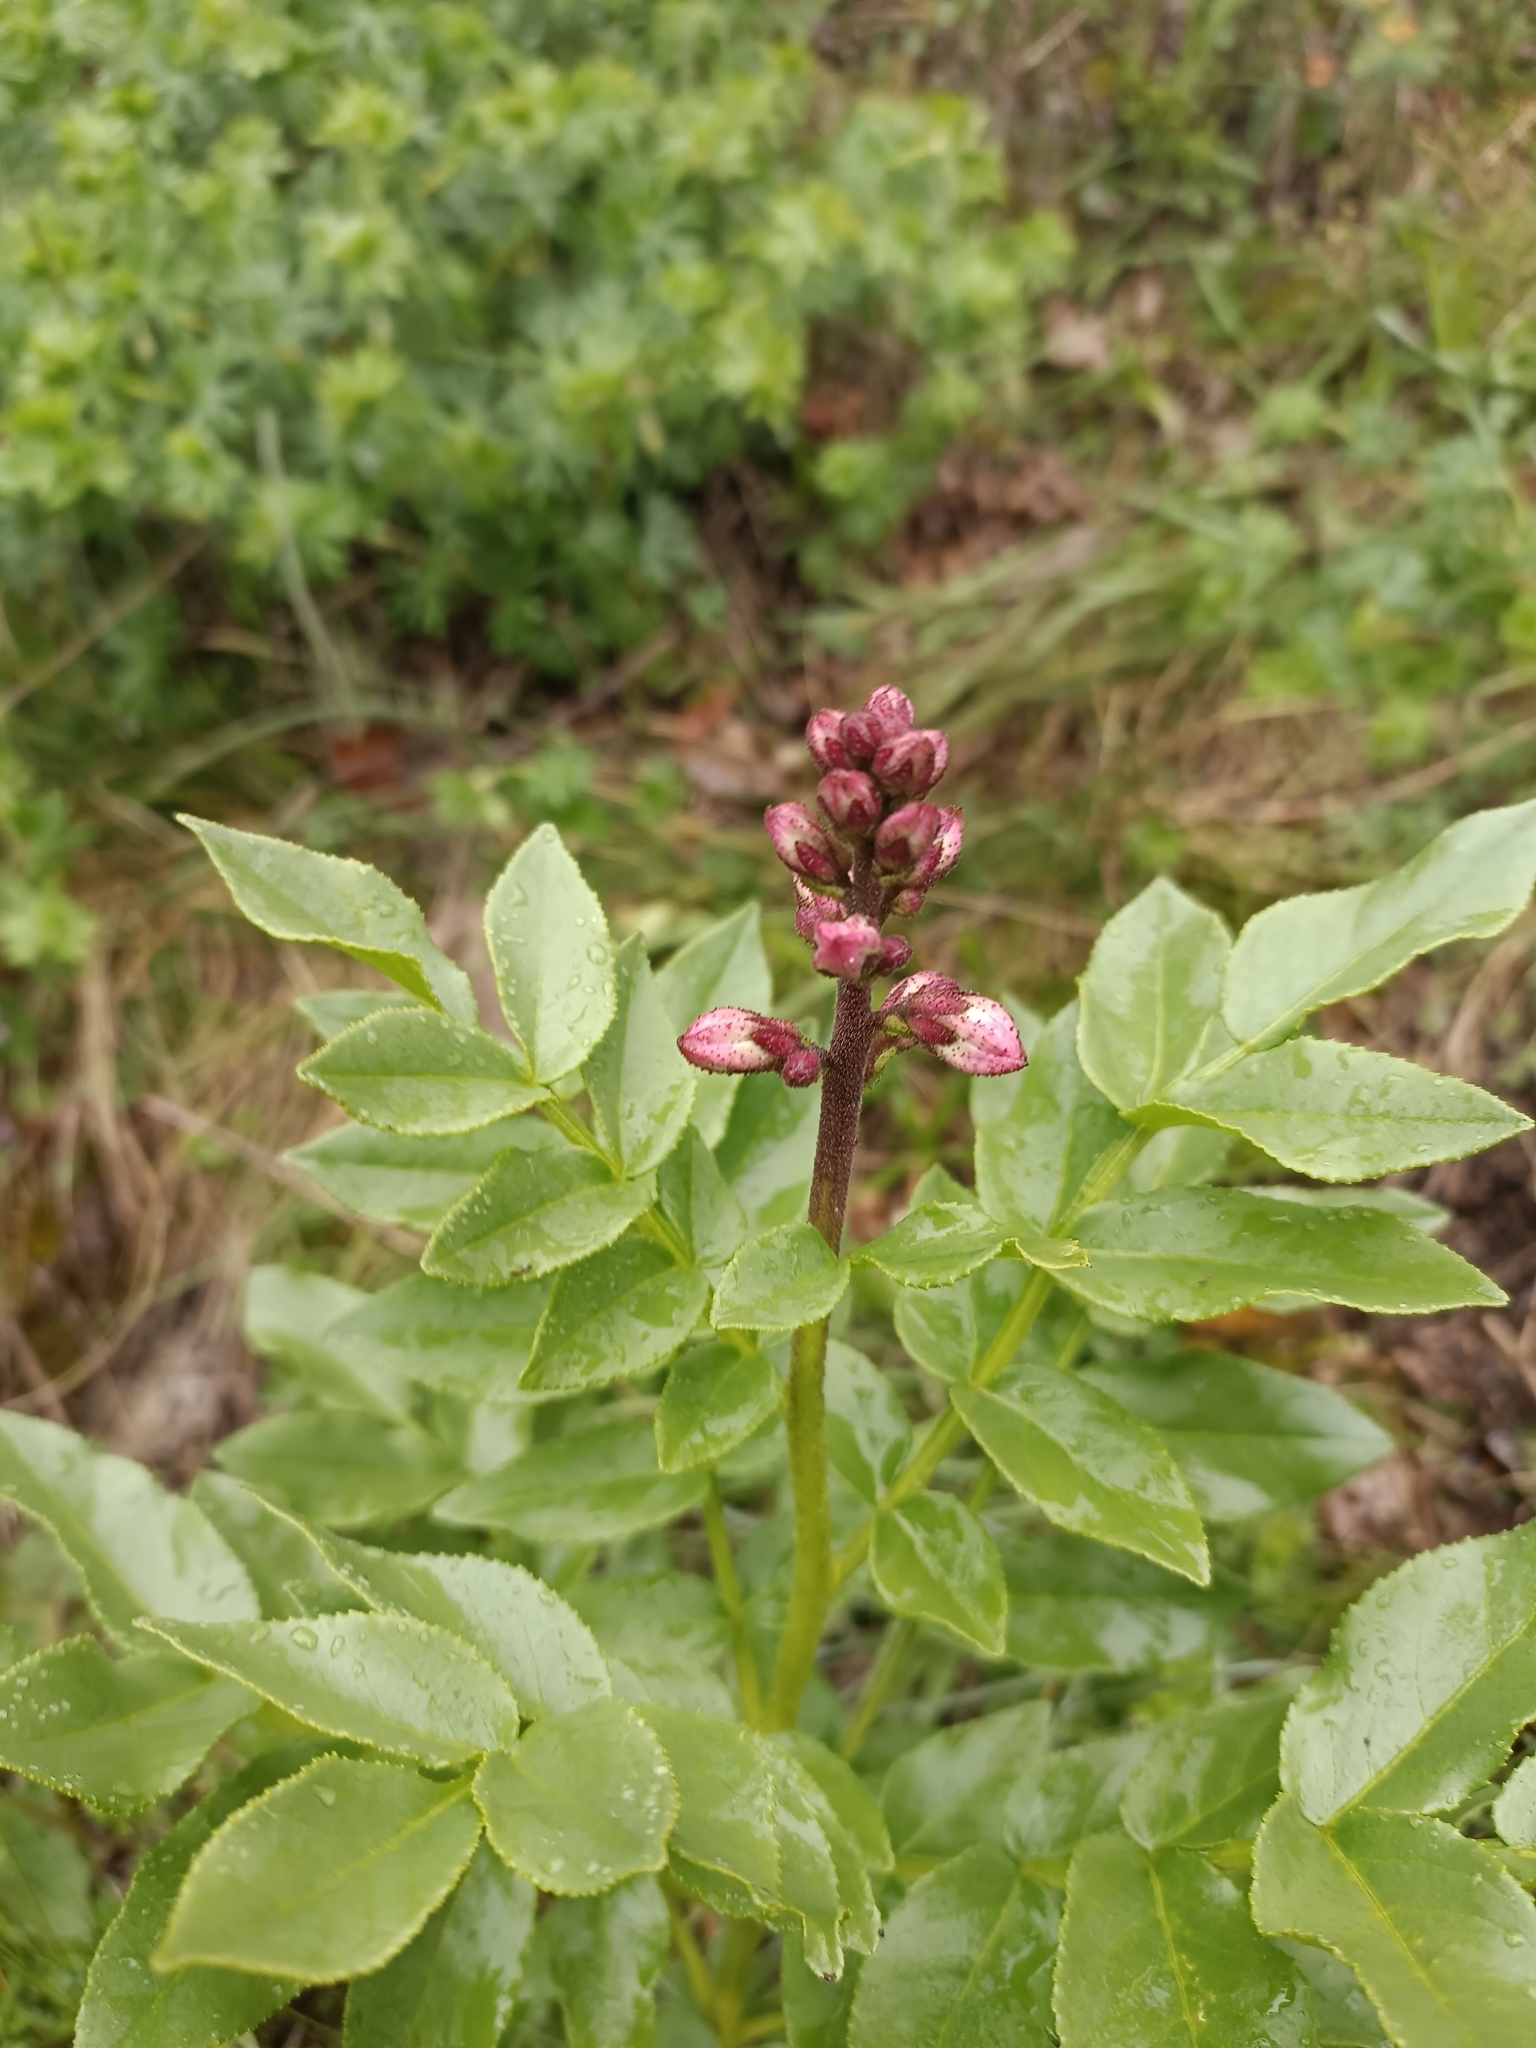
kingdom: Plantae
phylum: Tracheophyta
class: Magnoliopsida
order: Sapindales
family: Rutaceae
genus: Dictamnus
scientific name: Dictamnus albus
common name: Gasplant
